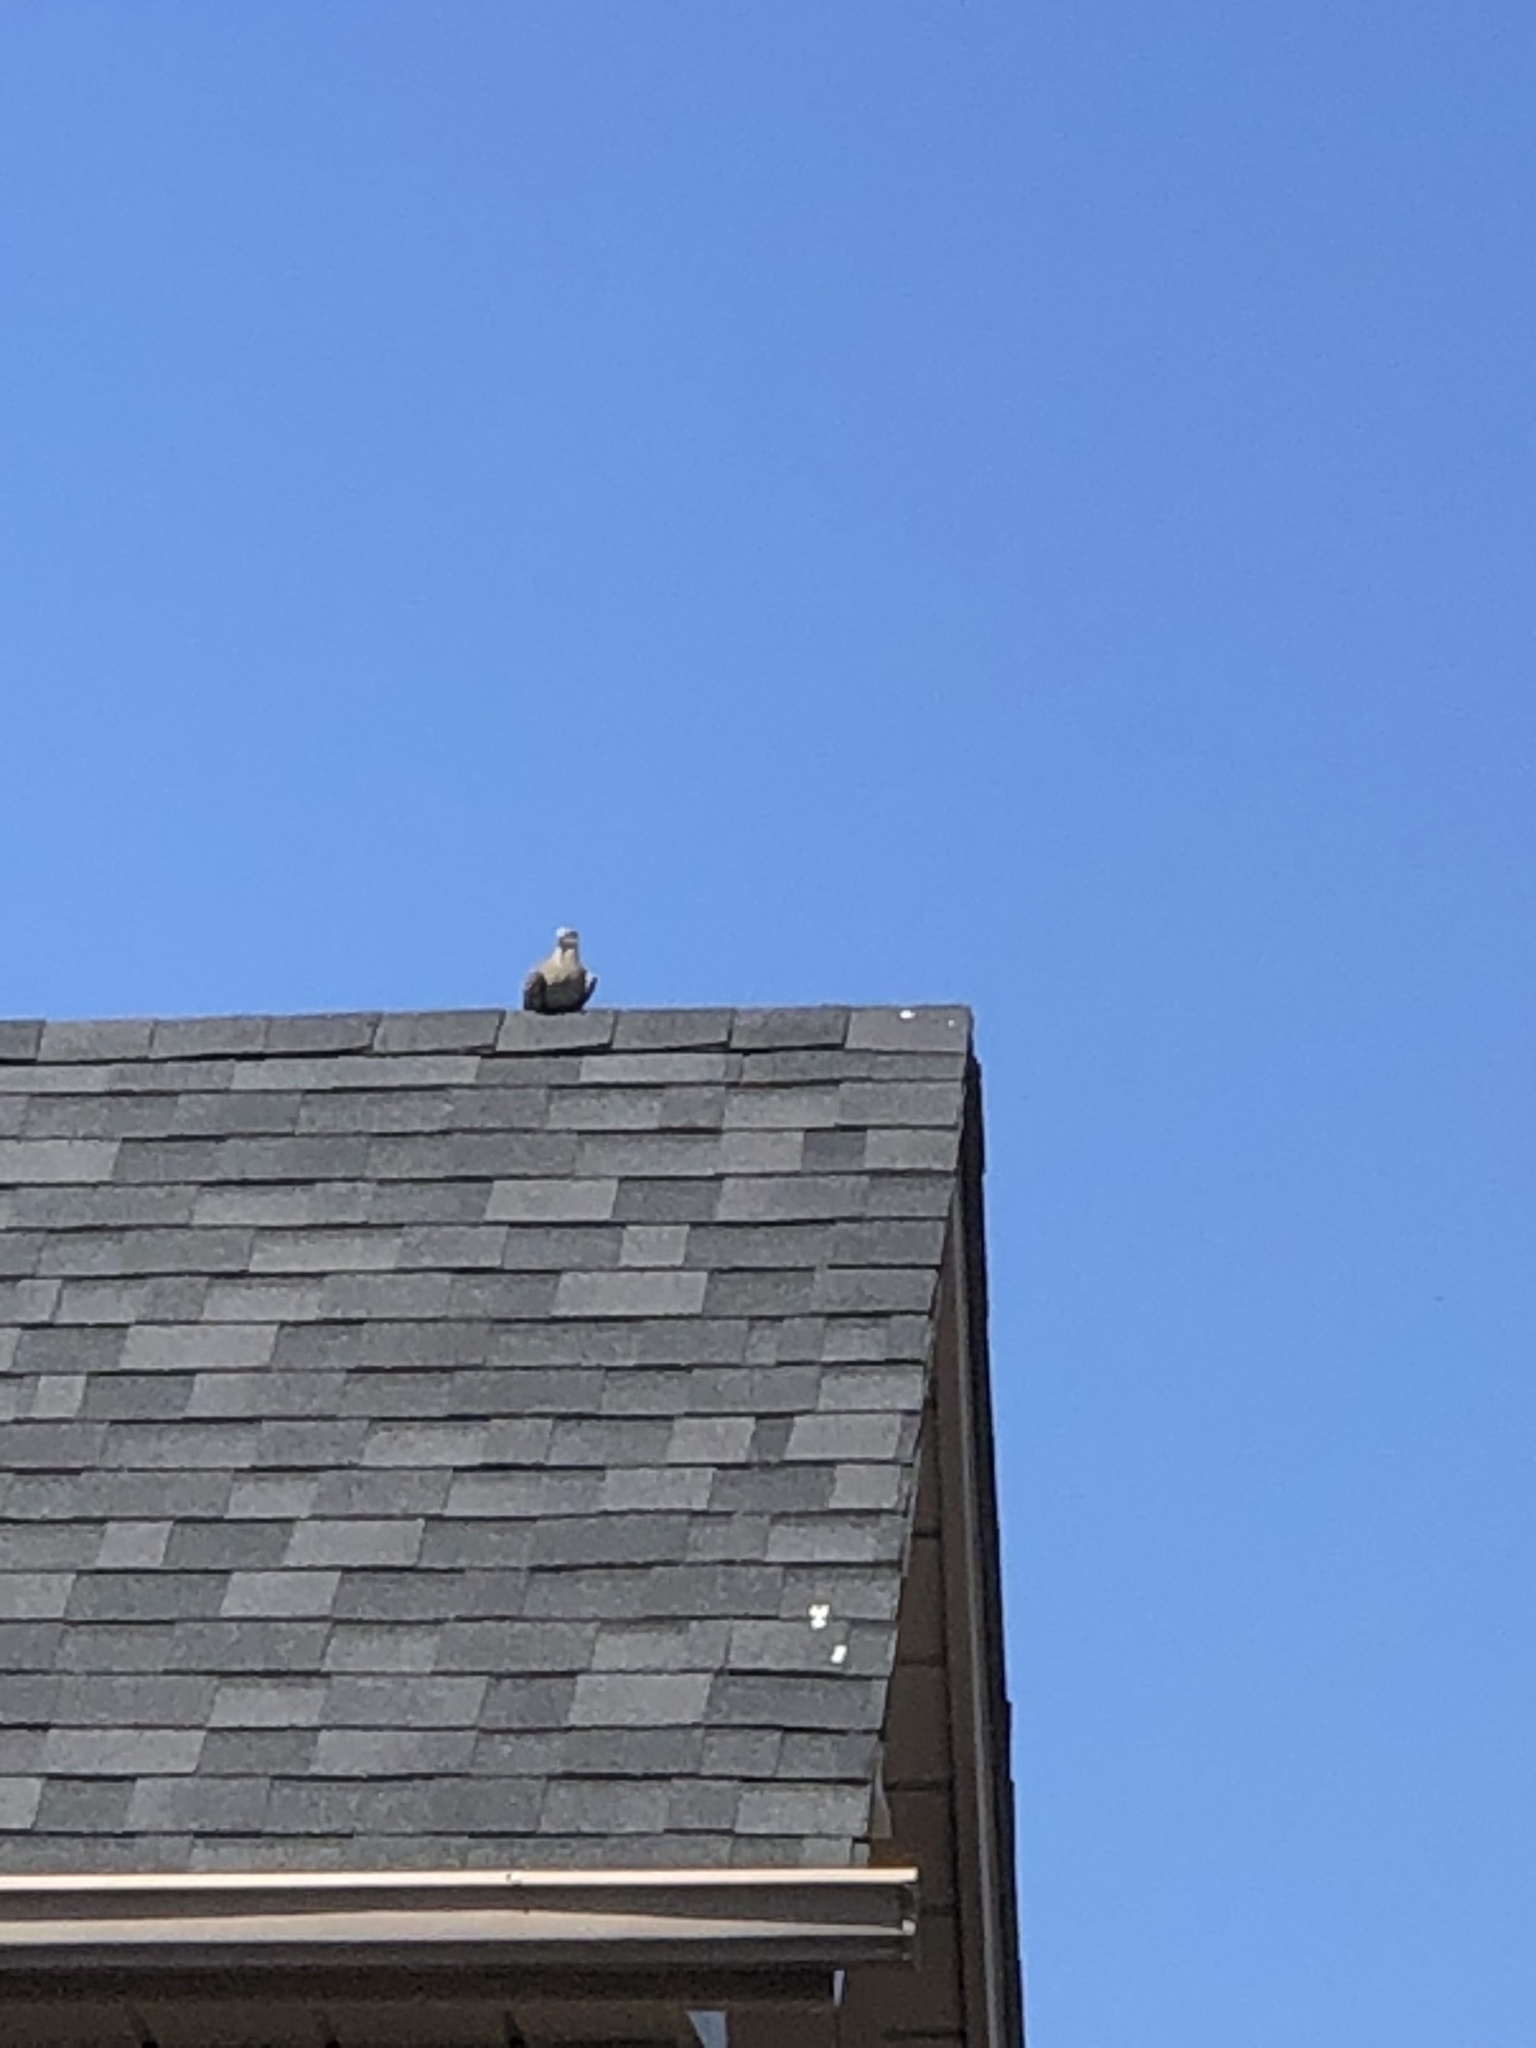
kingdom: Animalia
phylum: Chordata
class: Aves
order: Columbiformes
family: Columbidae
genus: Zenaida
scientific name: Zenaida macroura
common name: Mourning dove
